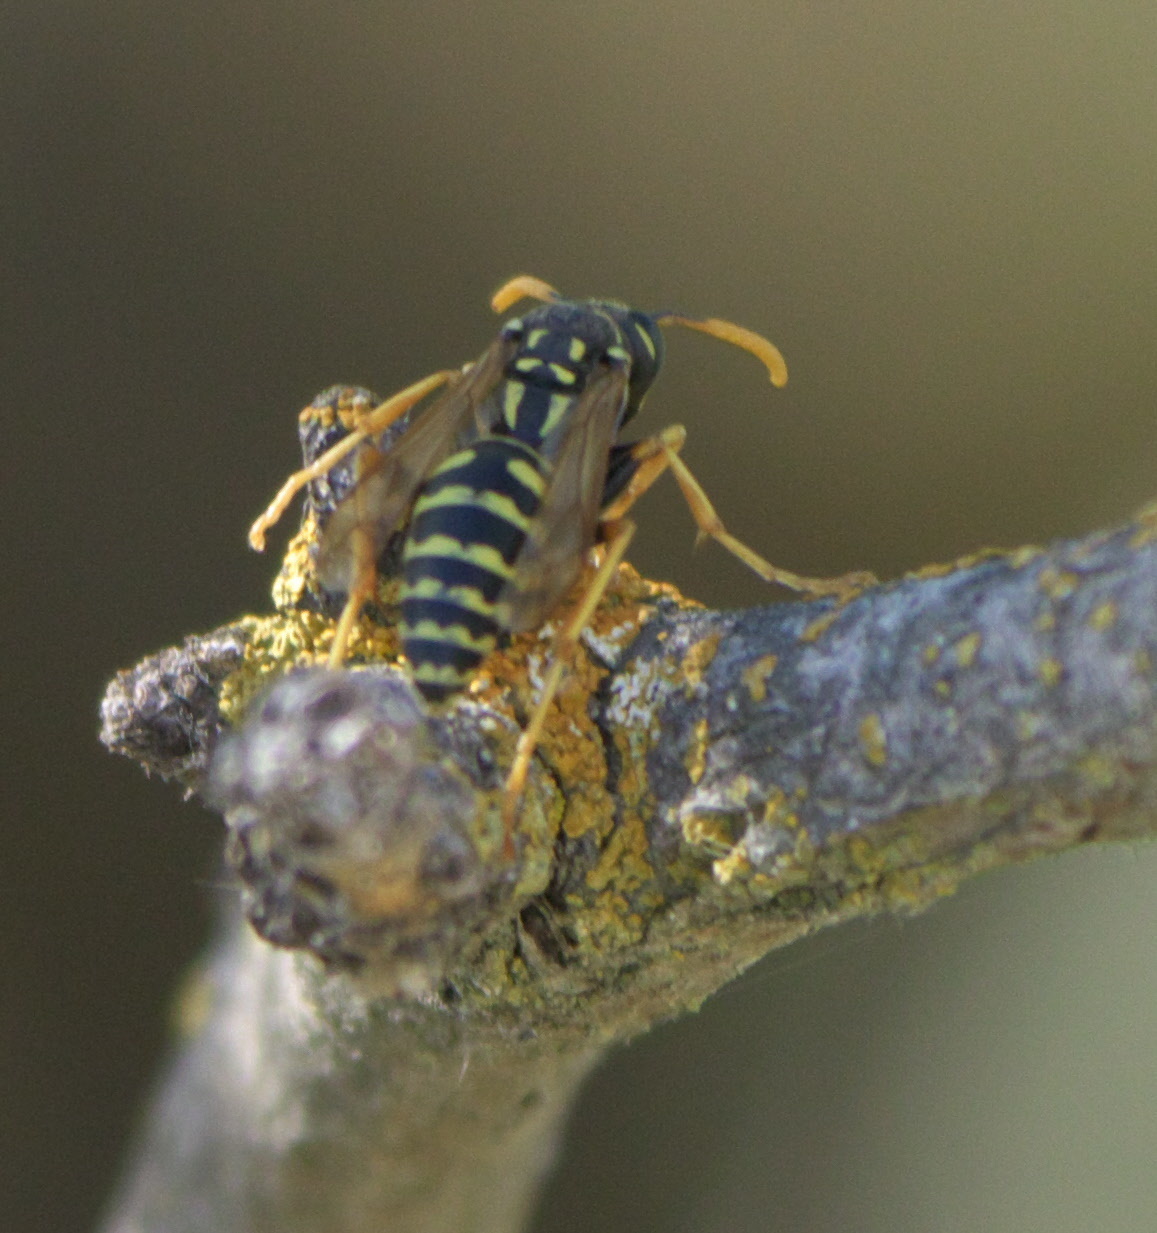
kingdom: Animalia
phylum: Arthropoda
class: Insecta
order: Hymenoptera
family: Eumenidae
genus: Polistes
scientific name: Polistes dominula
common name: Paper wasp
